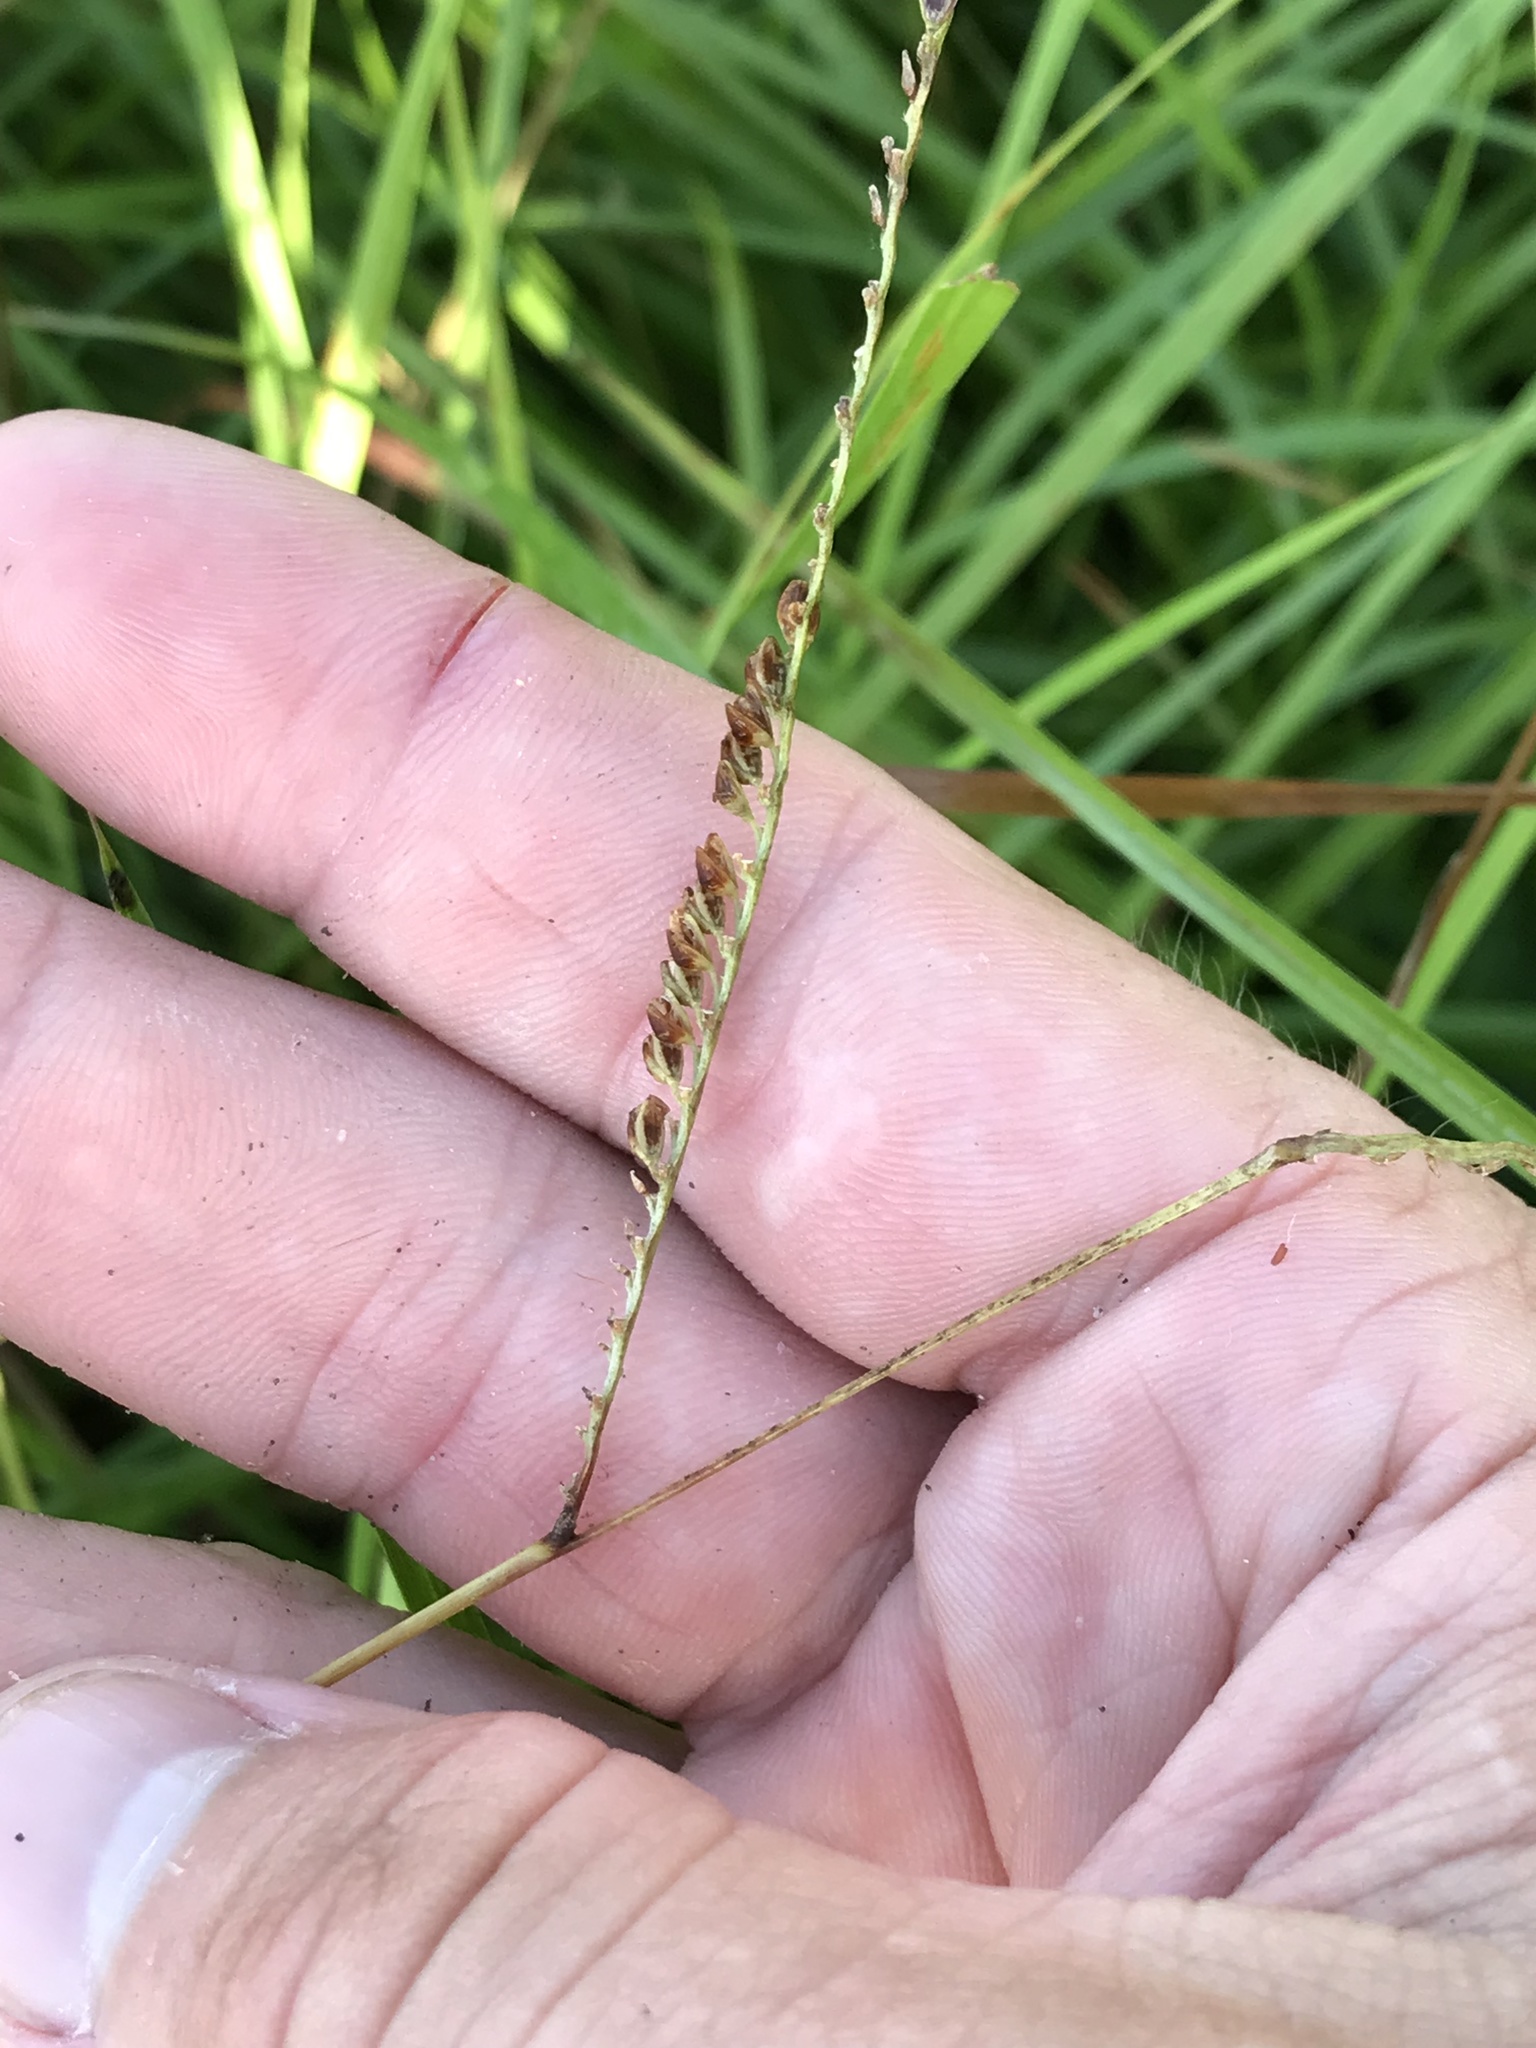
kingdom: Plantae
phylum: Tracheophyta
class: Liliopsida
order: Poales
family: Poaceae
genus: Paspalum
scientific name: Paspalum plicatulum
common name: Top paspalum
